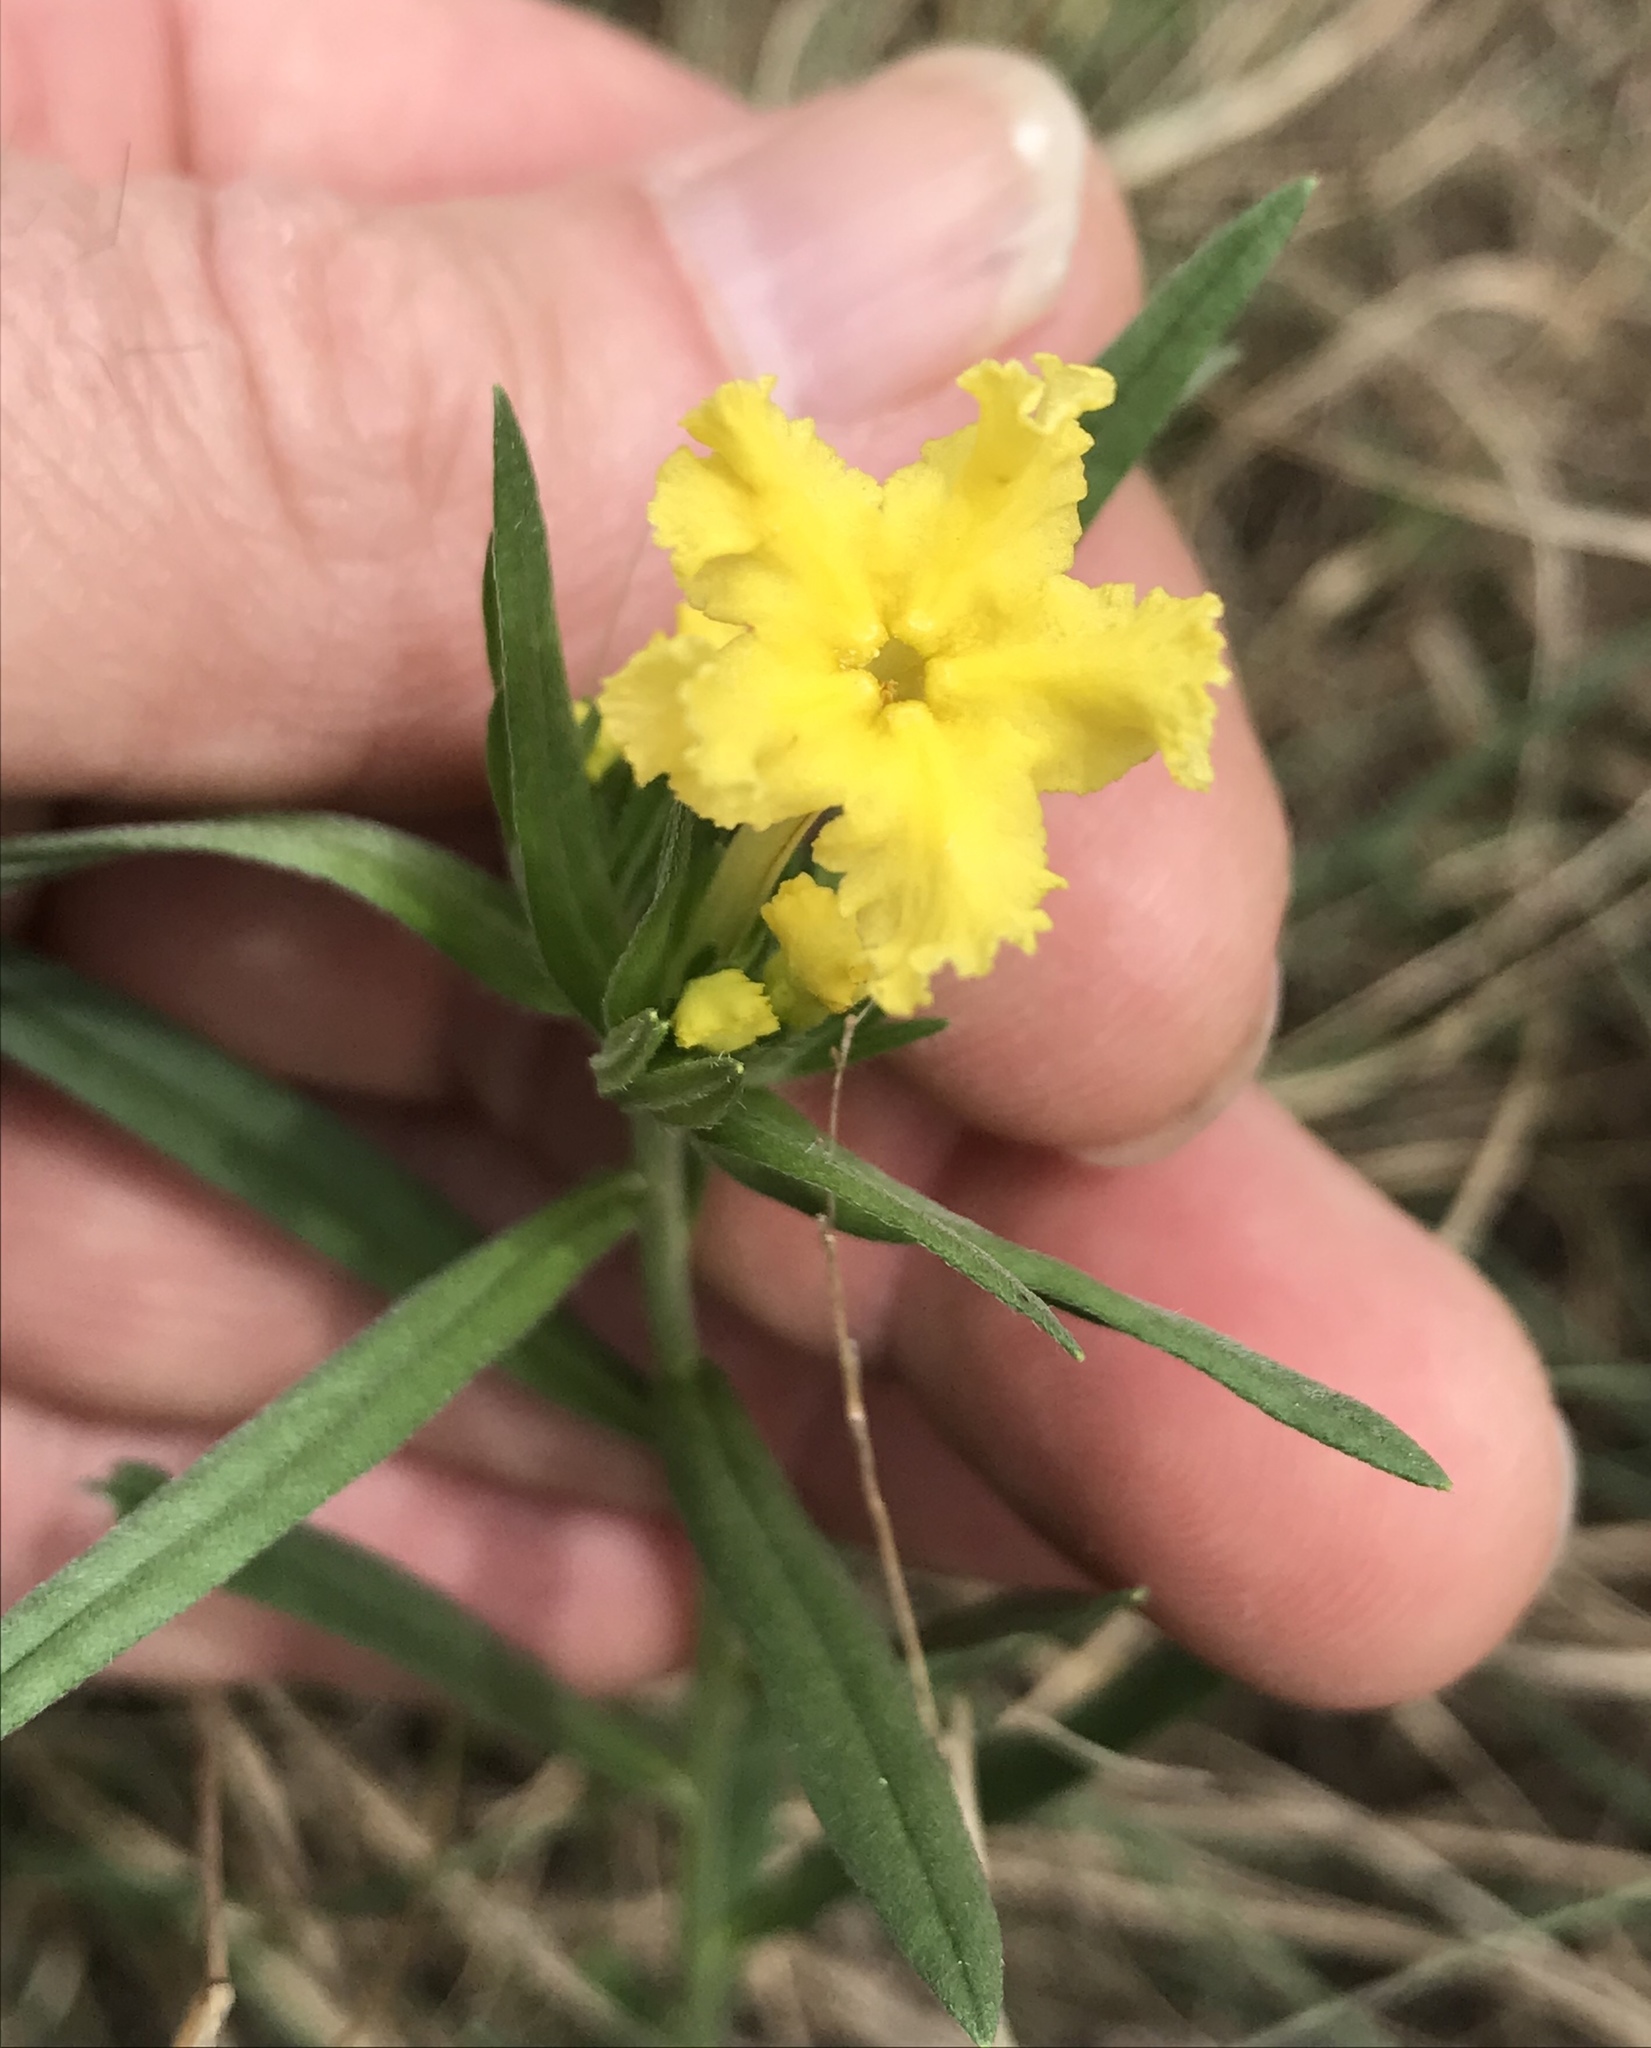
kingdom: Plantae
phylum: Tracheophyta
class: Magnoliopsida
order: Boraginales
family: Boraginaceae
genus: Lithospermum
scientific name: Lithospermum incisum
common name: Fringed gromwell
